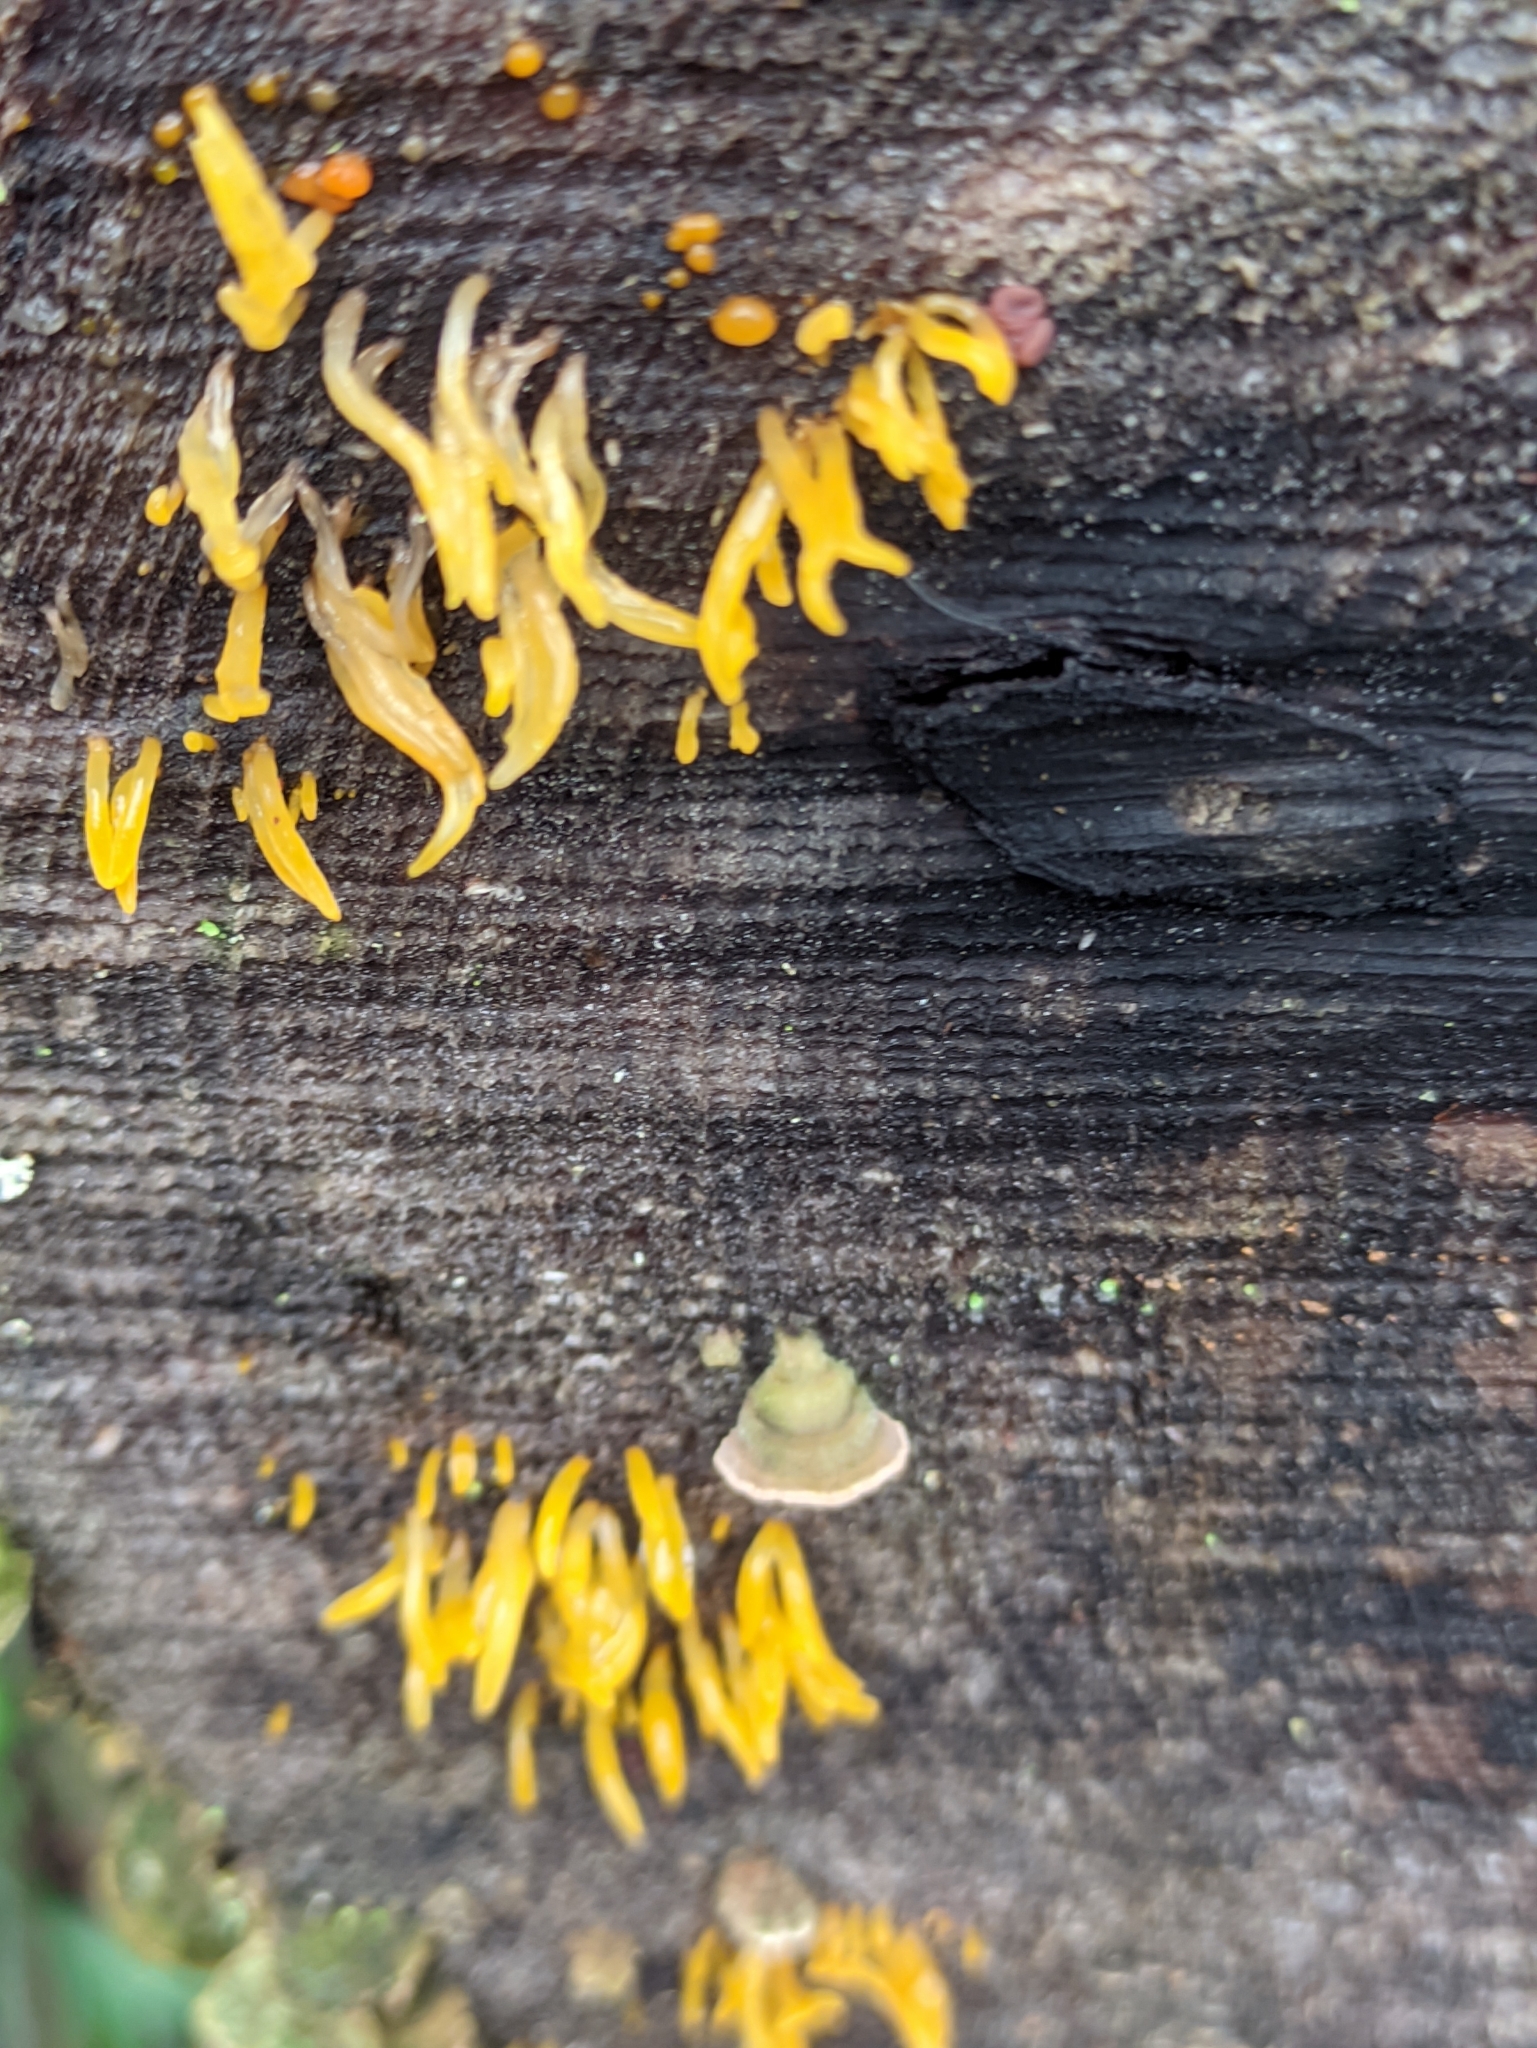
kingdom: Fungi
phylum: Basidiomycota
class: Dacrymycetes
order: Dacrymycetales
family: Dacrymycetaceae
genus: Calocera
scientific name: Calocera cornea
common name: Small stagshorn
